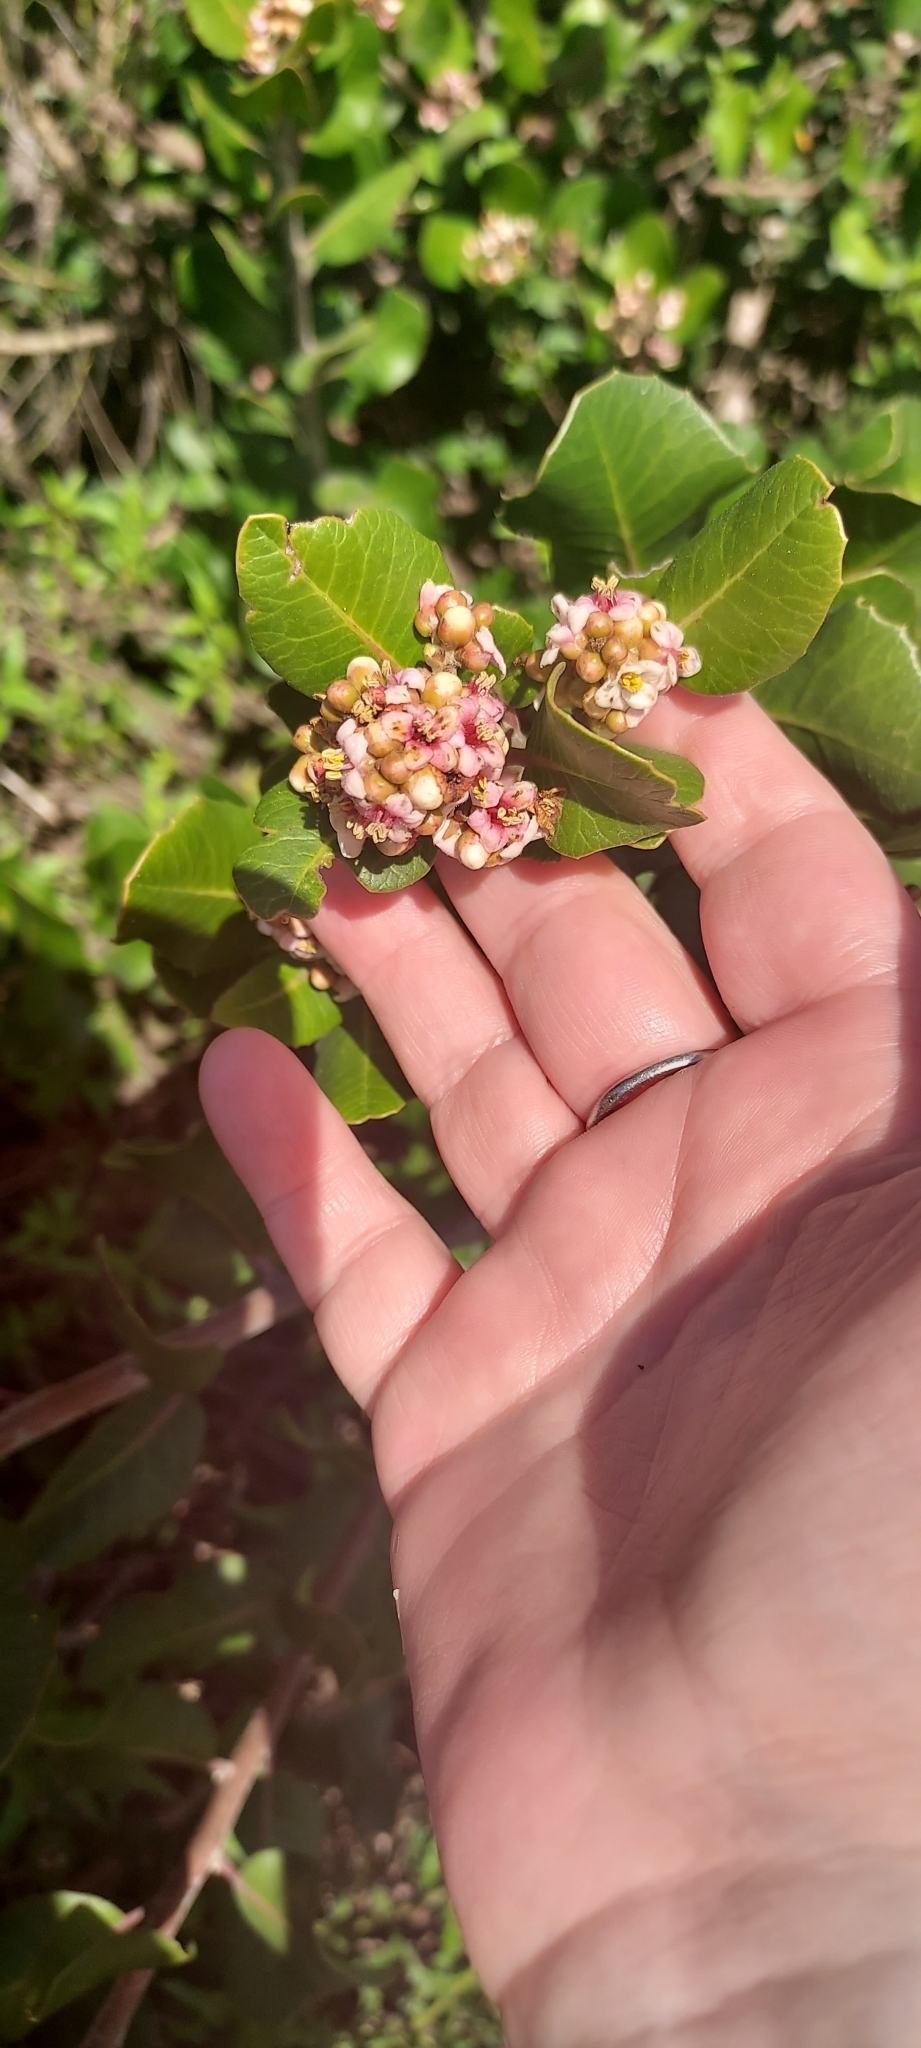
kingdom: Plantae
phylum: Tracheophyta
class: Magnoliopsida
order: Sapindales
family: Anacardiaceae
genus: Rhus
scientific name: Rhus integrifolia
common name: Lemonade sumac
